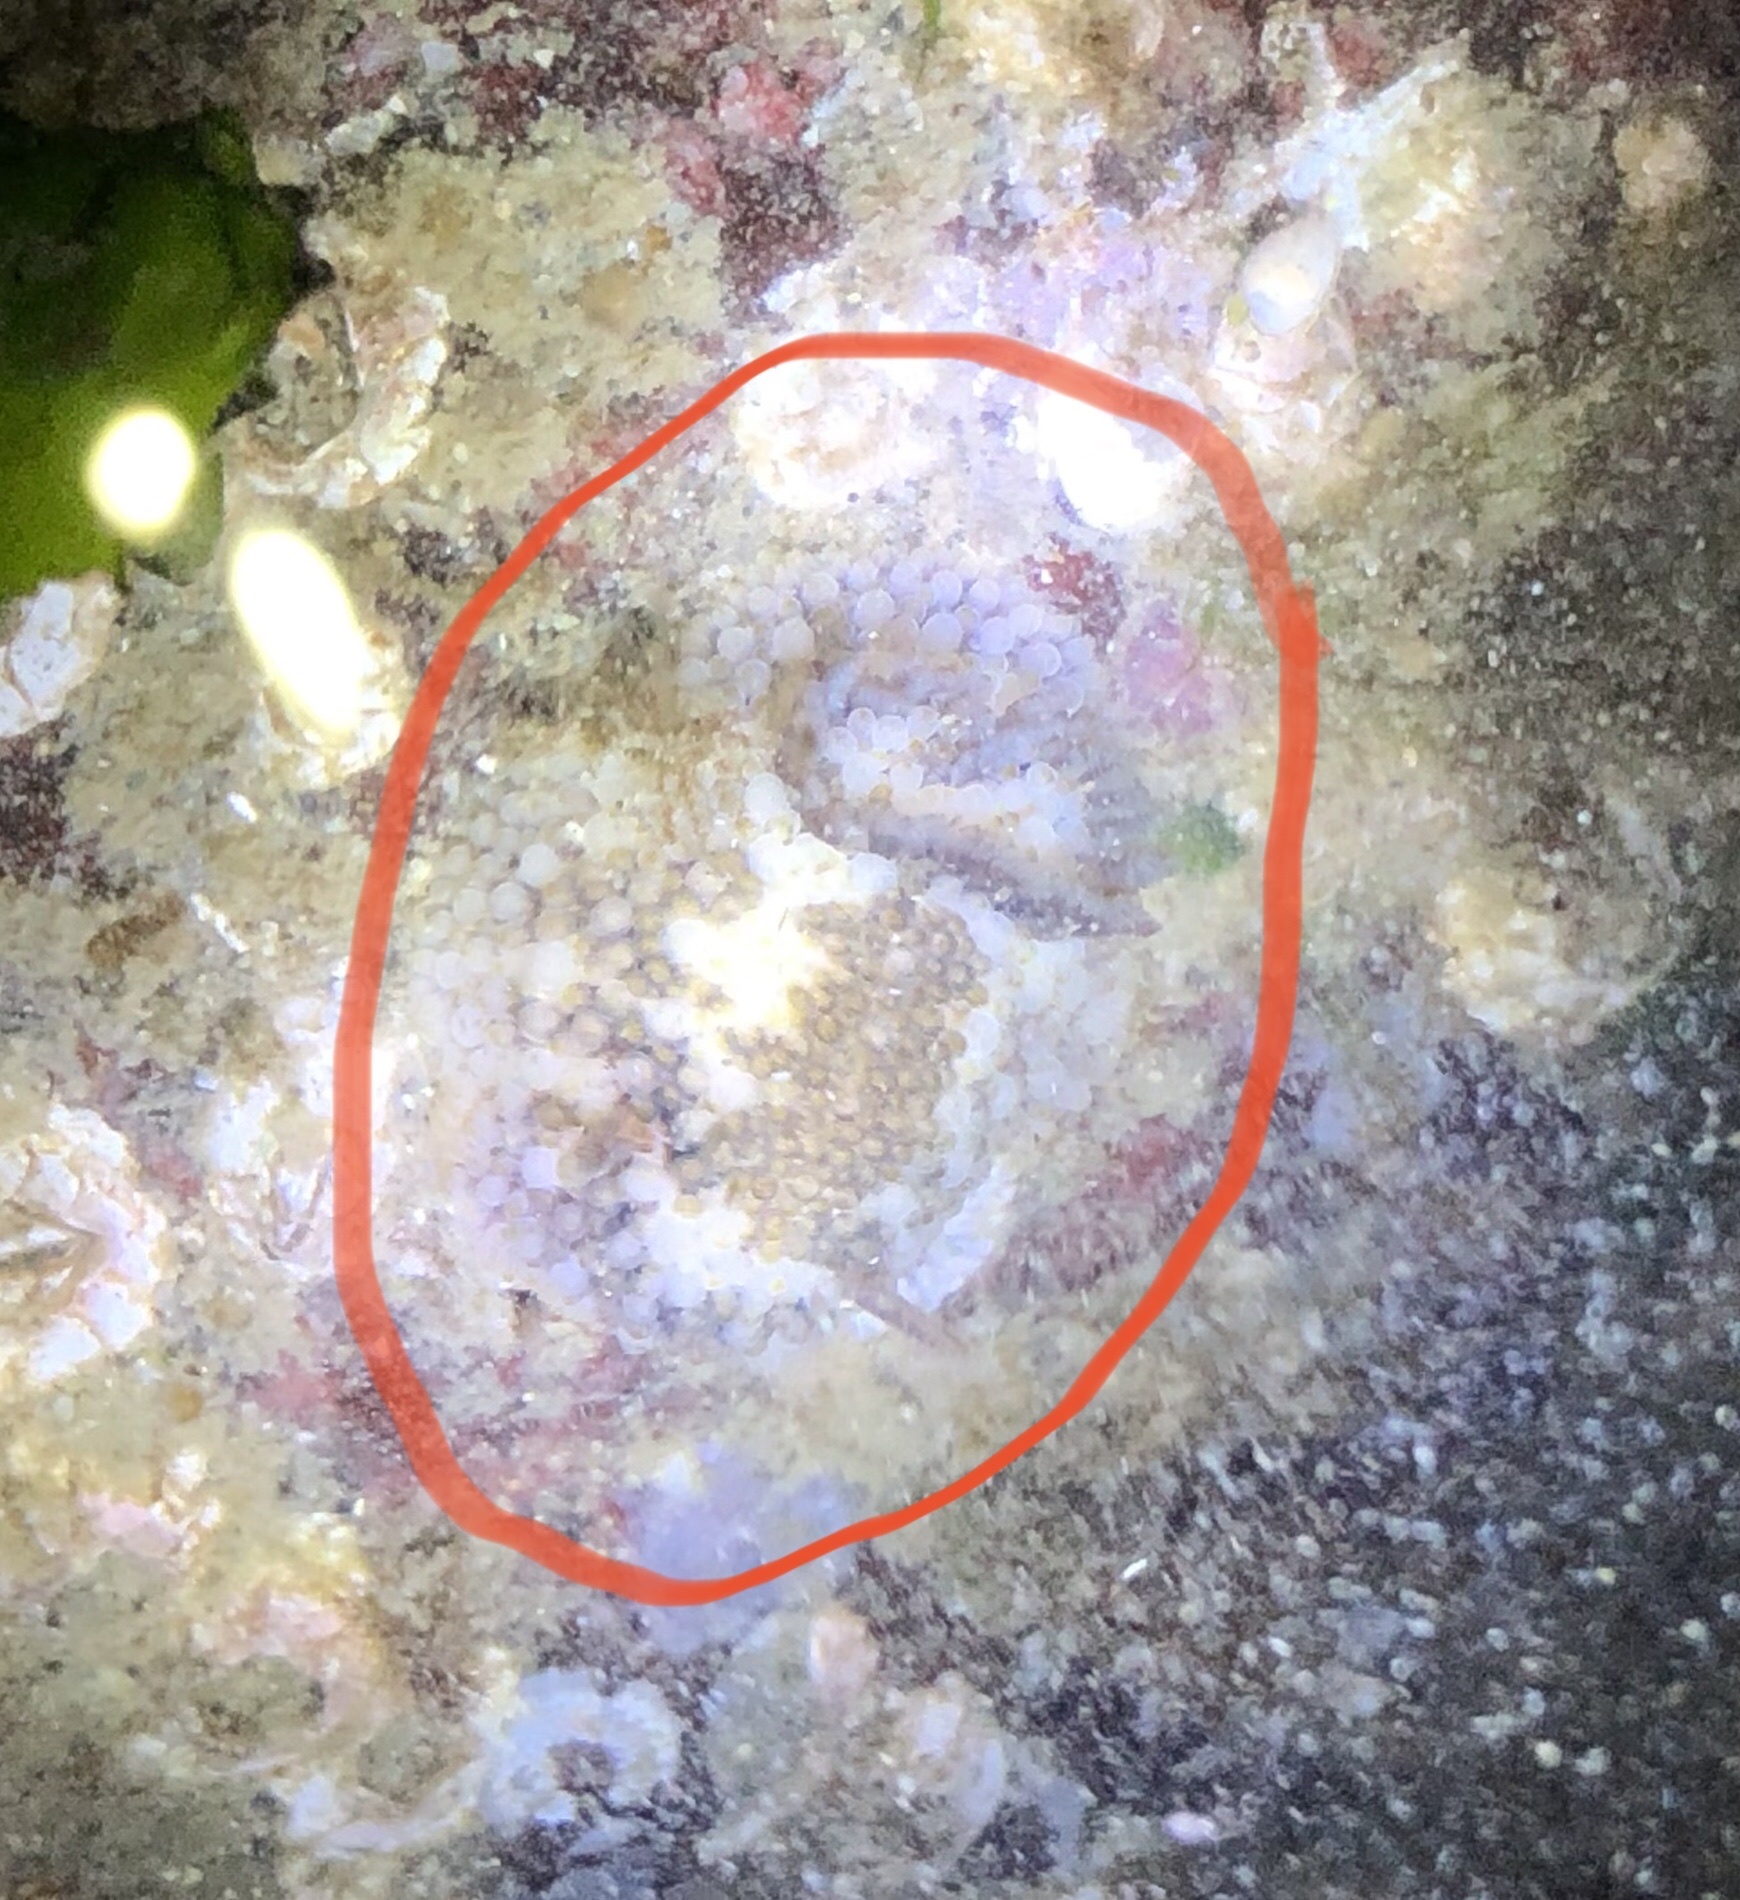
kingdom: Animalia
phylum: Mollusca
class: Gastropoda
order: Nudibranchia
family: Onchidorididae
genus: Onchidoris
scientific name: Onchidoris bilamellata
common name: Barnacle-eating onchidoris
